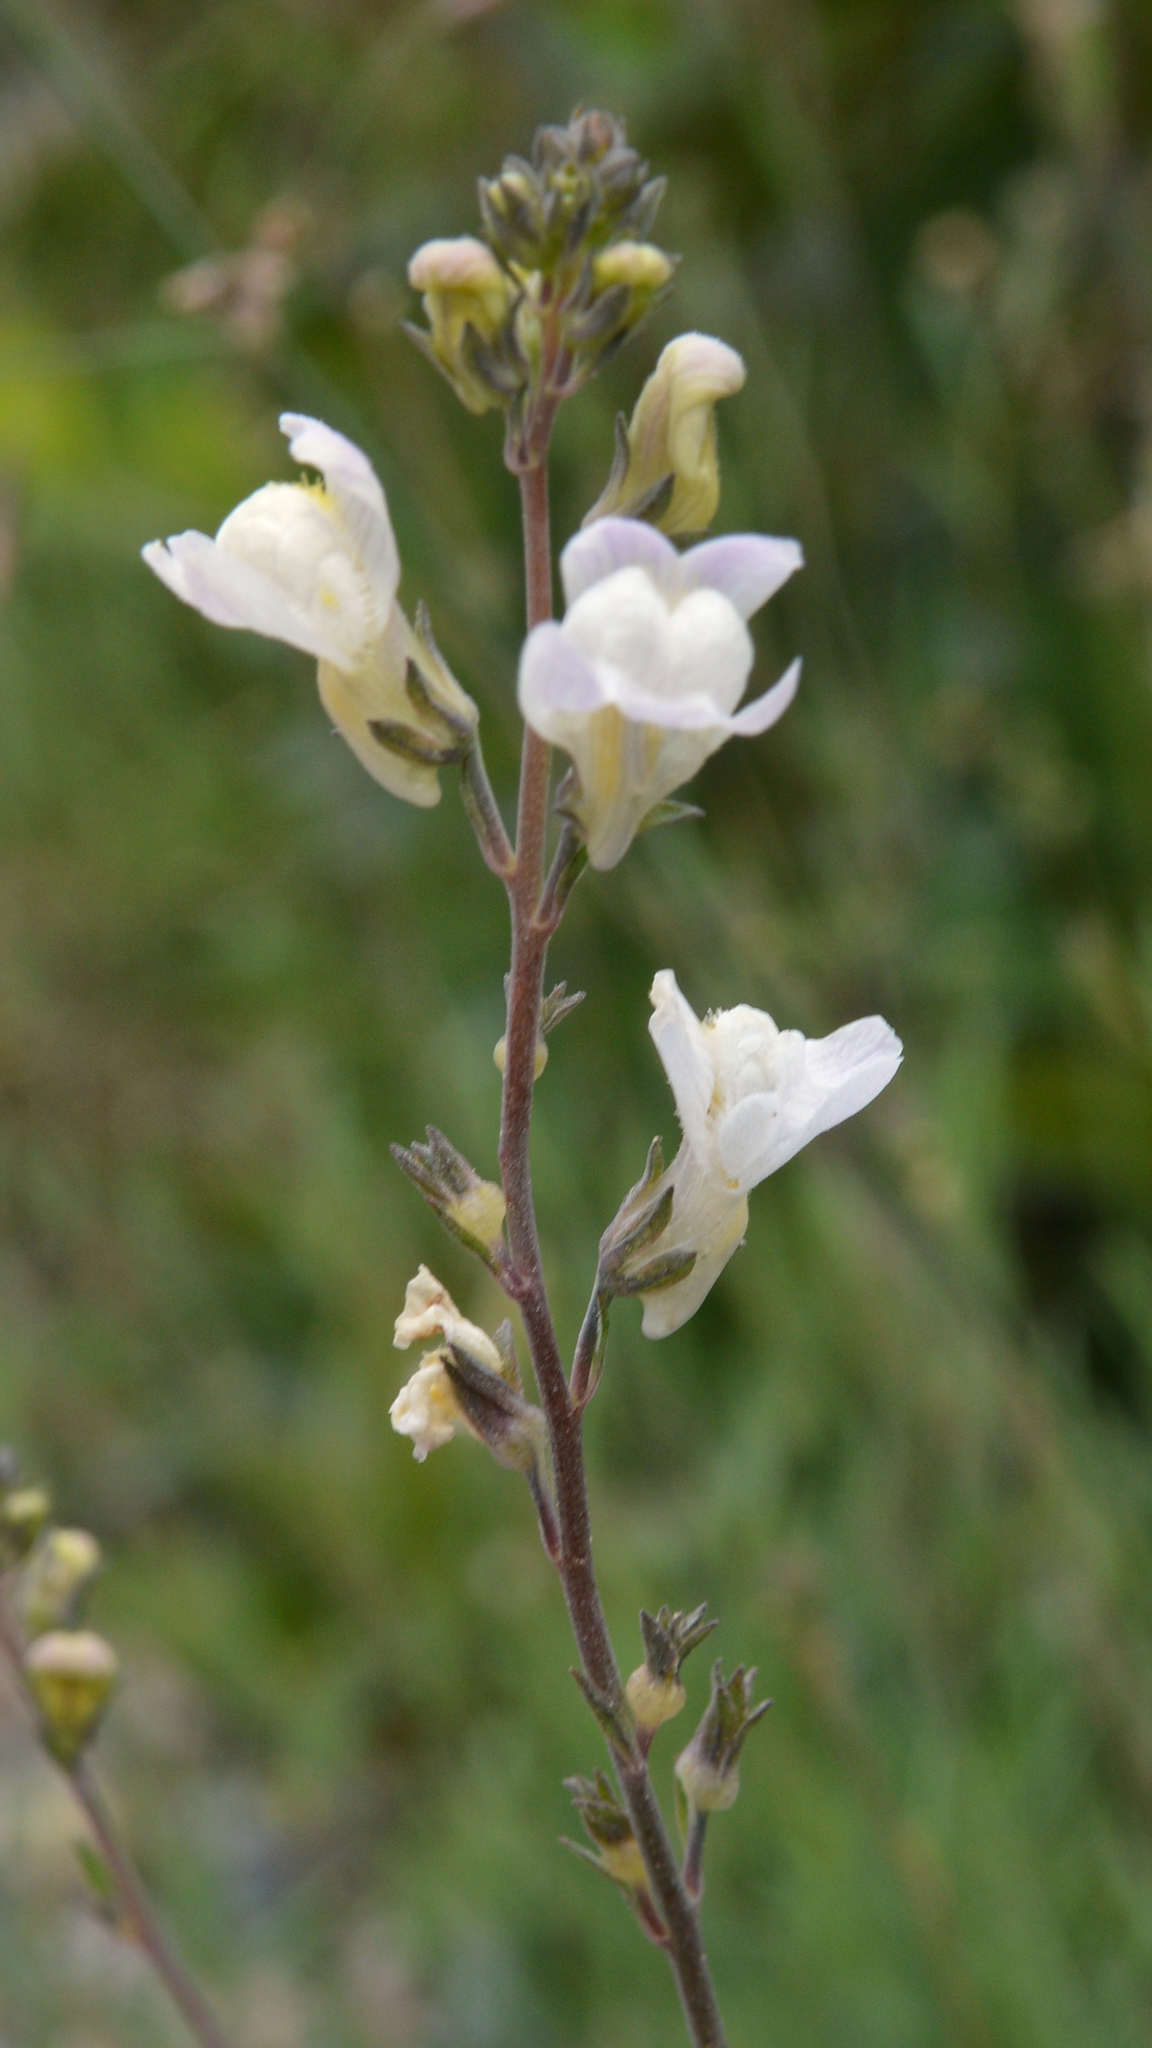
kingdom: Plantae
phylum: Tracheophyta
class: Magnoliopsida
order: Lamiales
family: Plantaginaceae
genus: Linaria
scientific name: Linaria repens
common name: Pale toadflax
